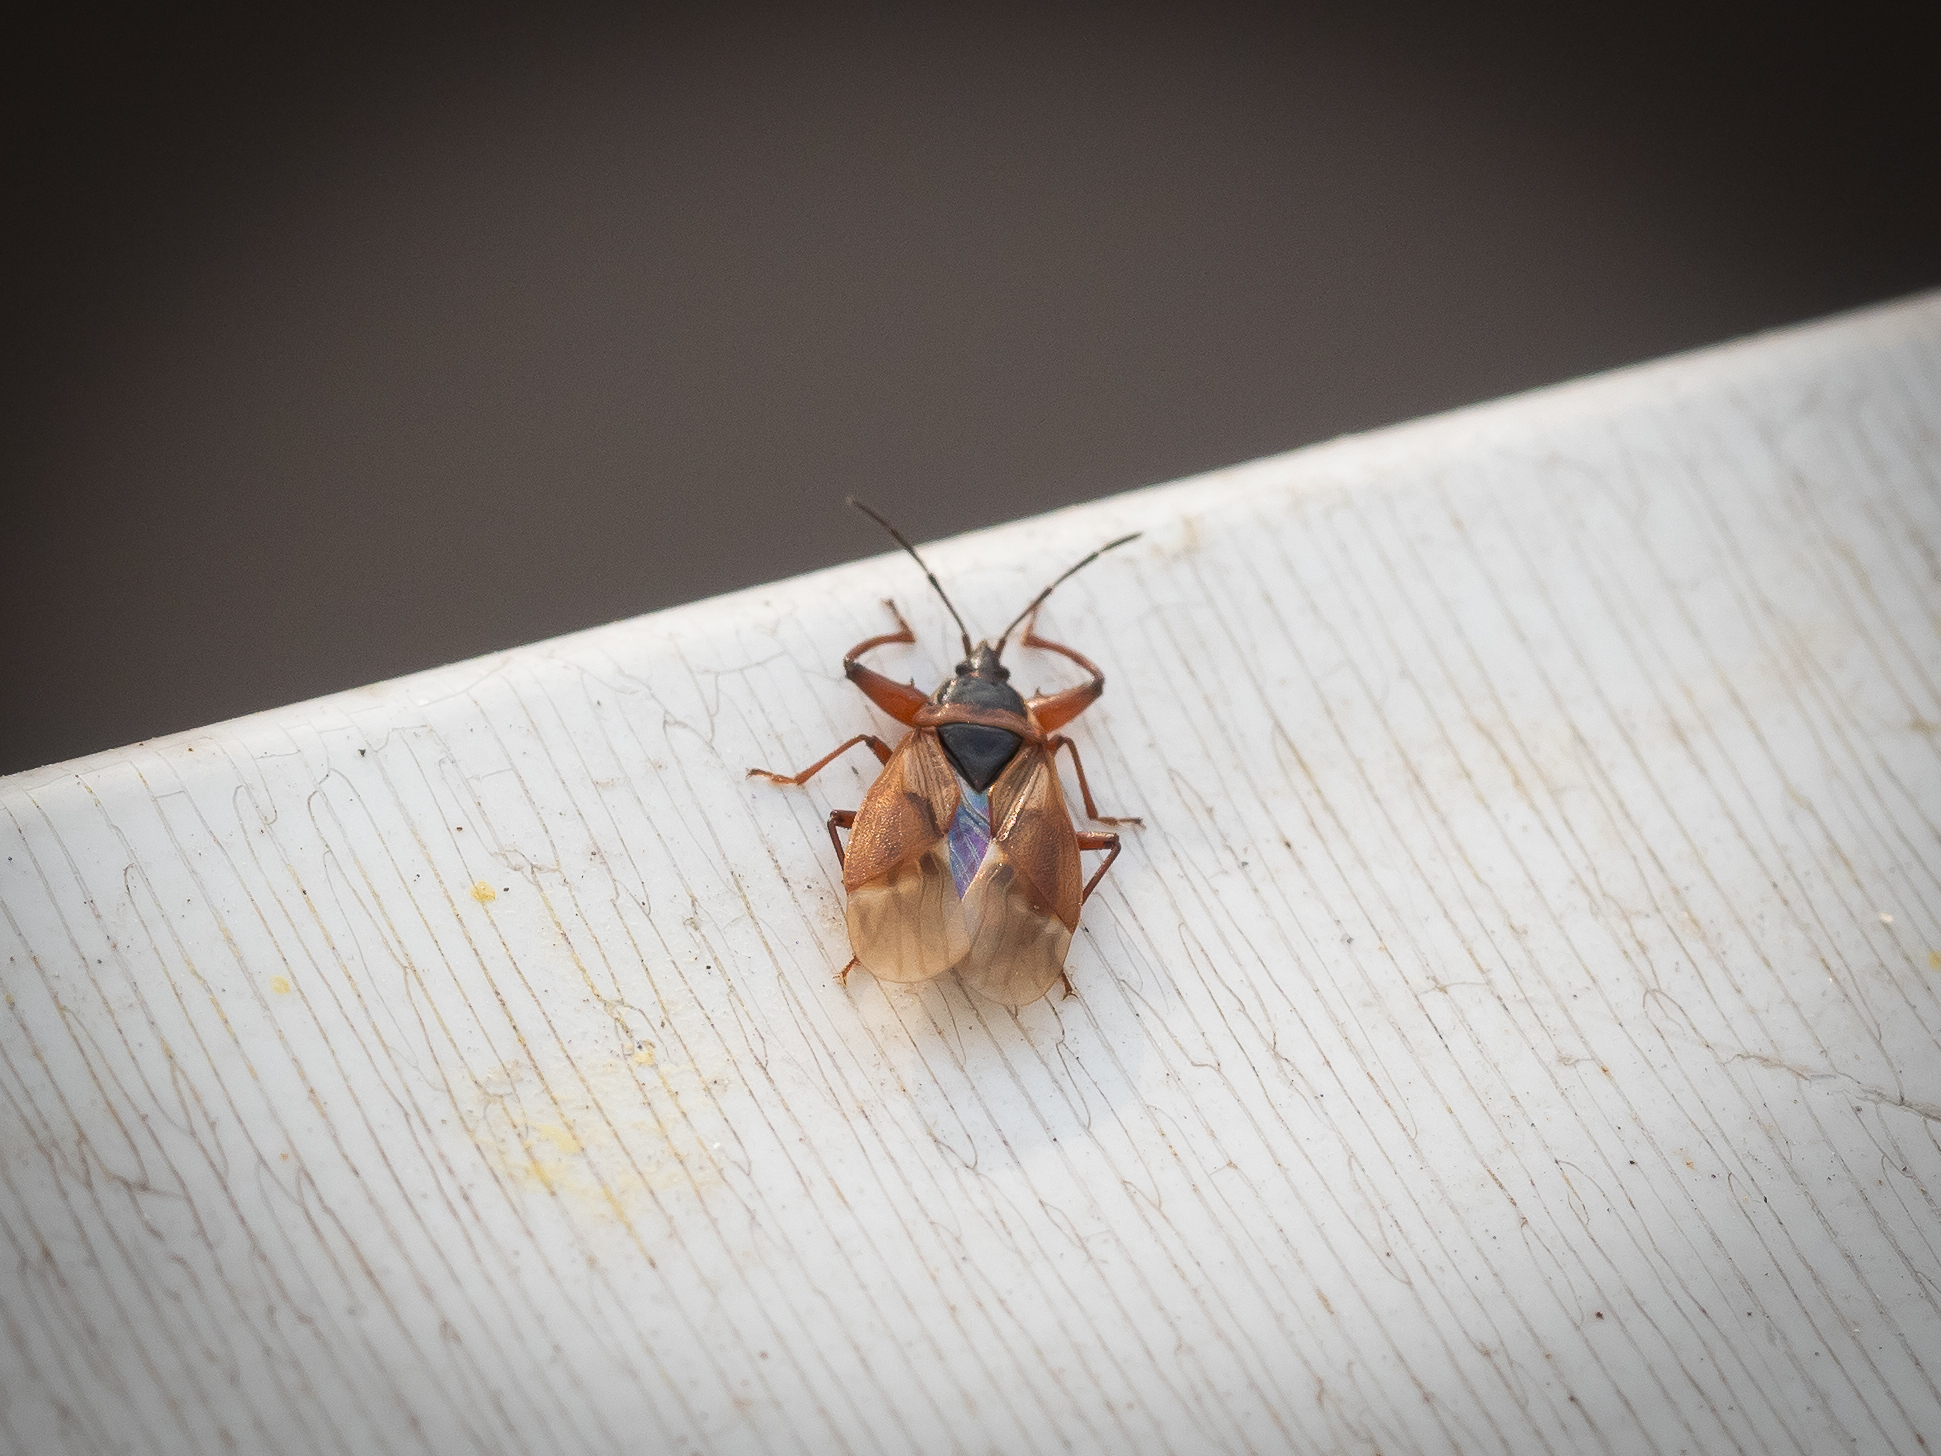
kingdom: Animalia
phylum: Arthropoda
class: Insecta
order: Hemiptera
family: Rhyparochromidae
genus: Gastrodes
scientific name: Gastrodes abietum
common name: Spruce cone bug
